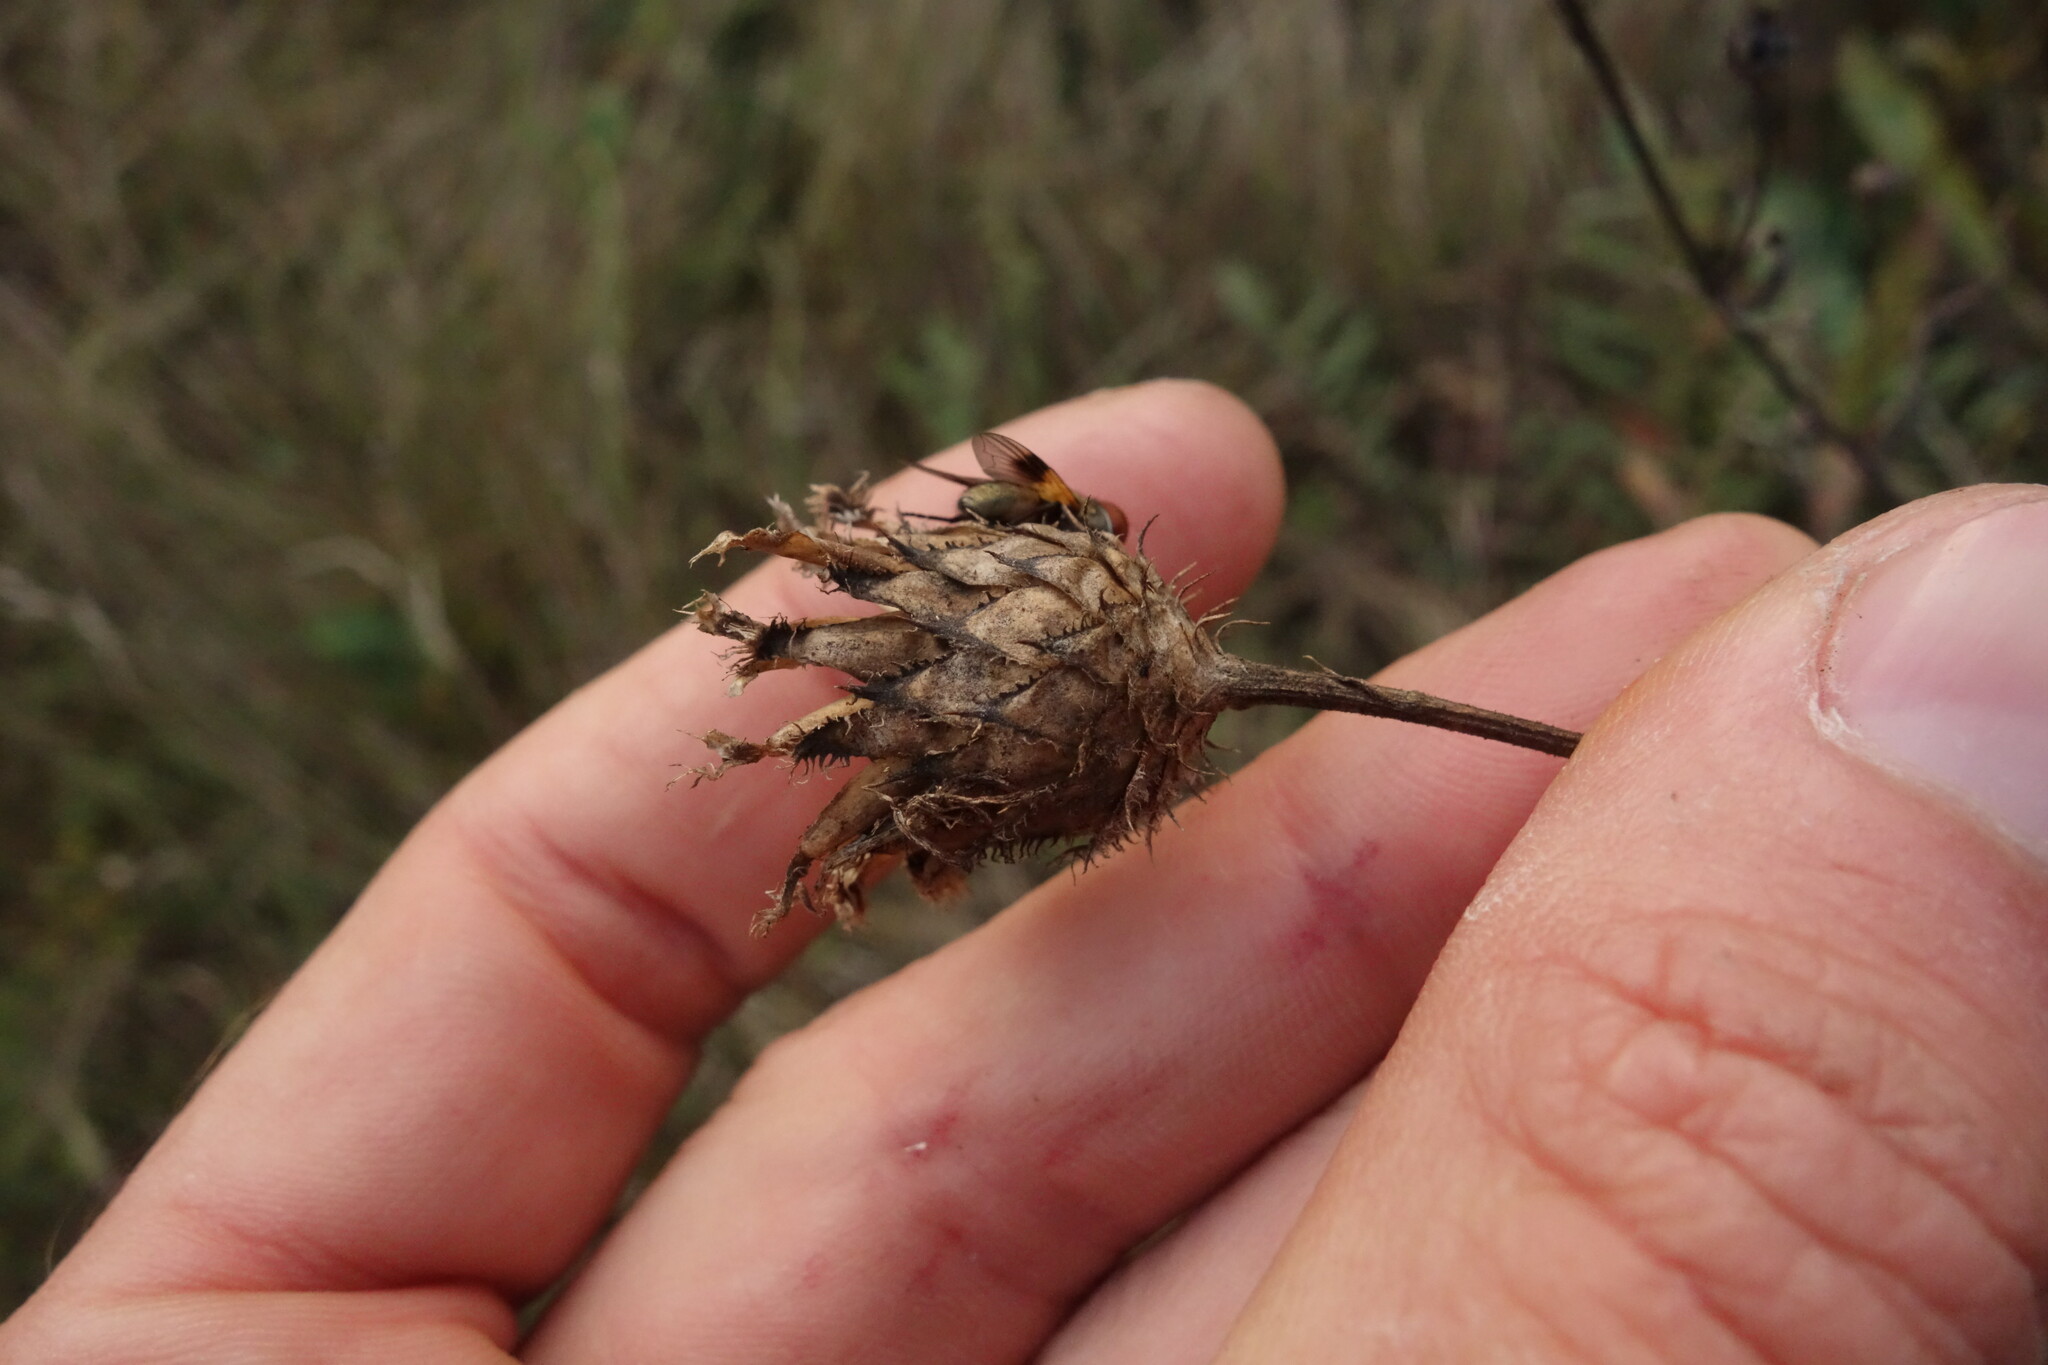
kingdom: Plantae
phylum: Tracheophyta
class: Magnoliopsida
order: Asterales
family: Asteraceae
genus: Centaurea
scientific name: Centaurea scabiosa
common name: Greater knapweed
